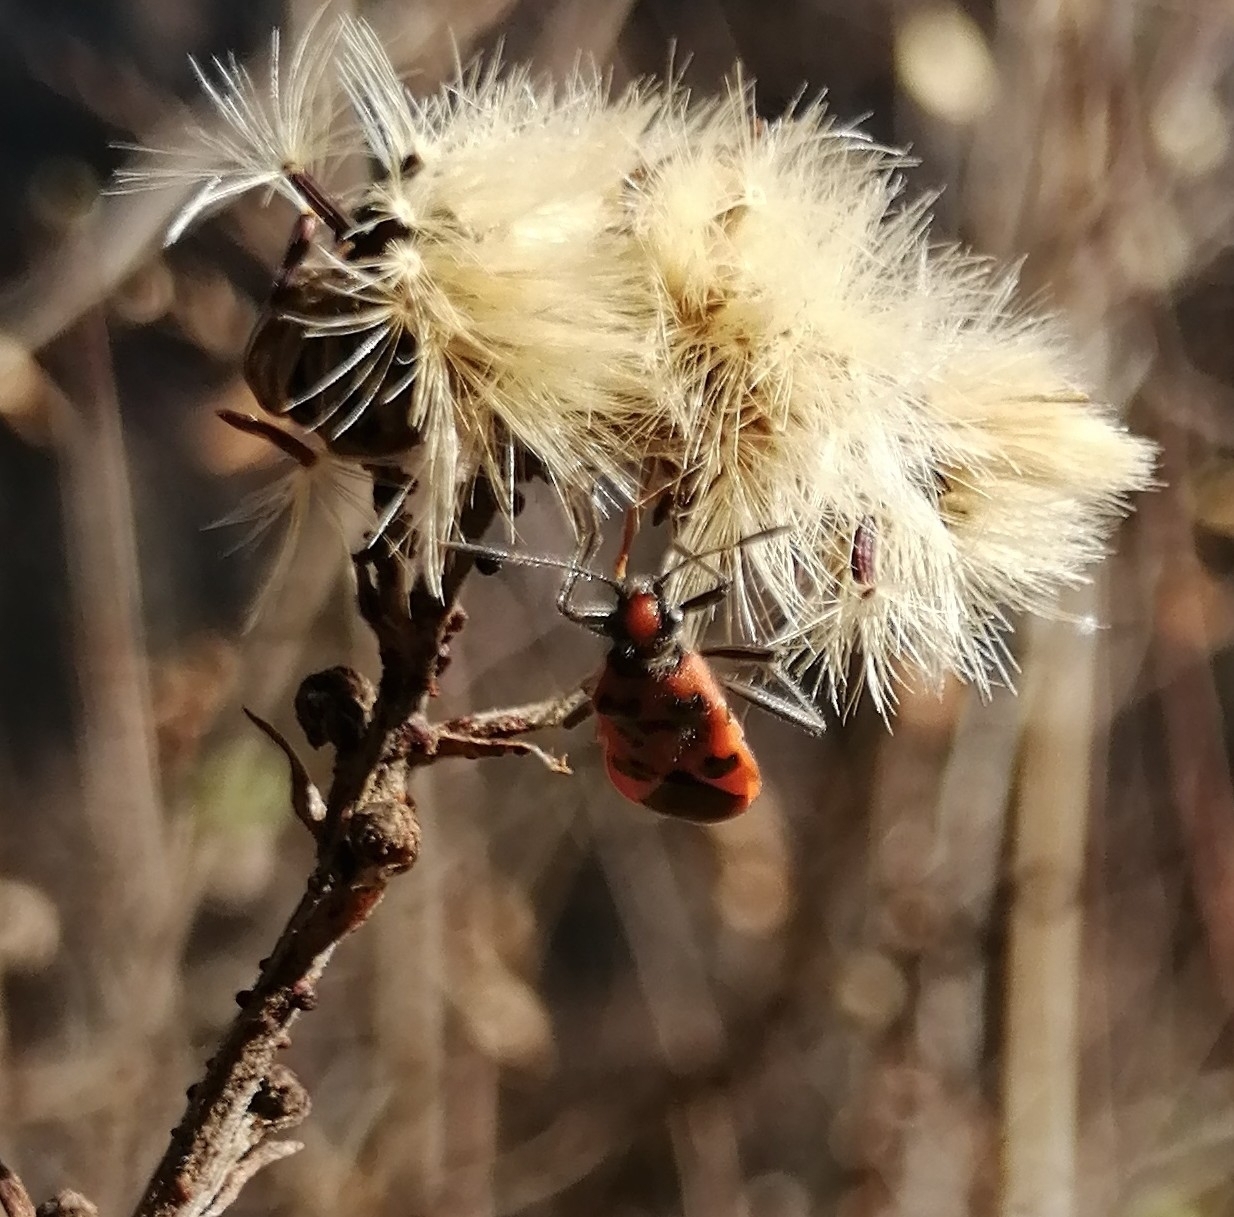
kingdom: Animalia
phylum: Arthropoda
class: Insecta
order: Hemiptera
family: Rhopalidae
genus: Corizus
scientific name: Corizus hyoscyami
